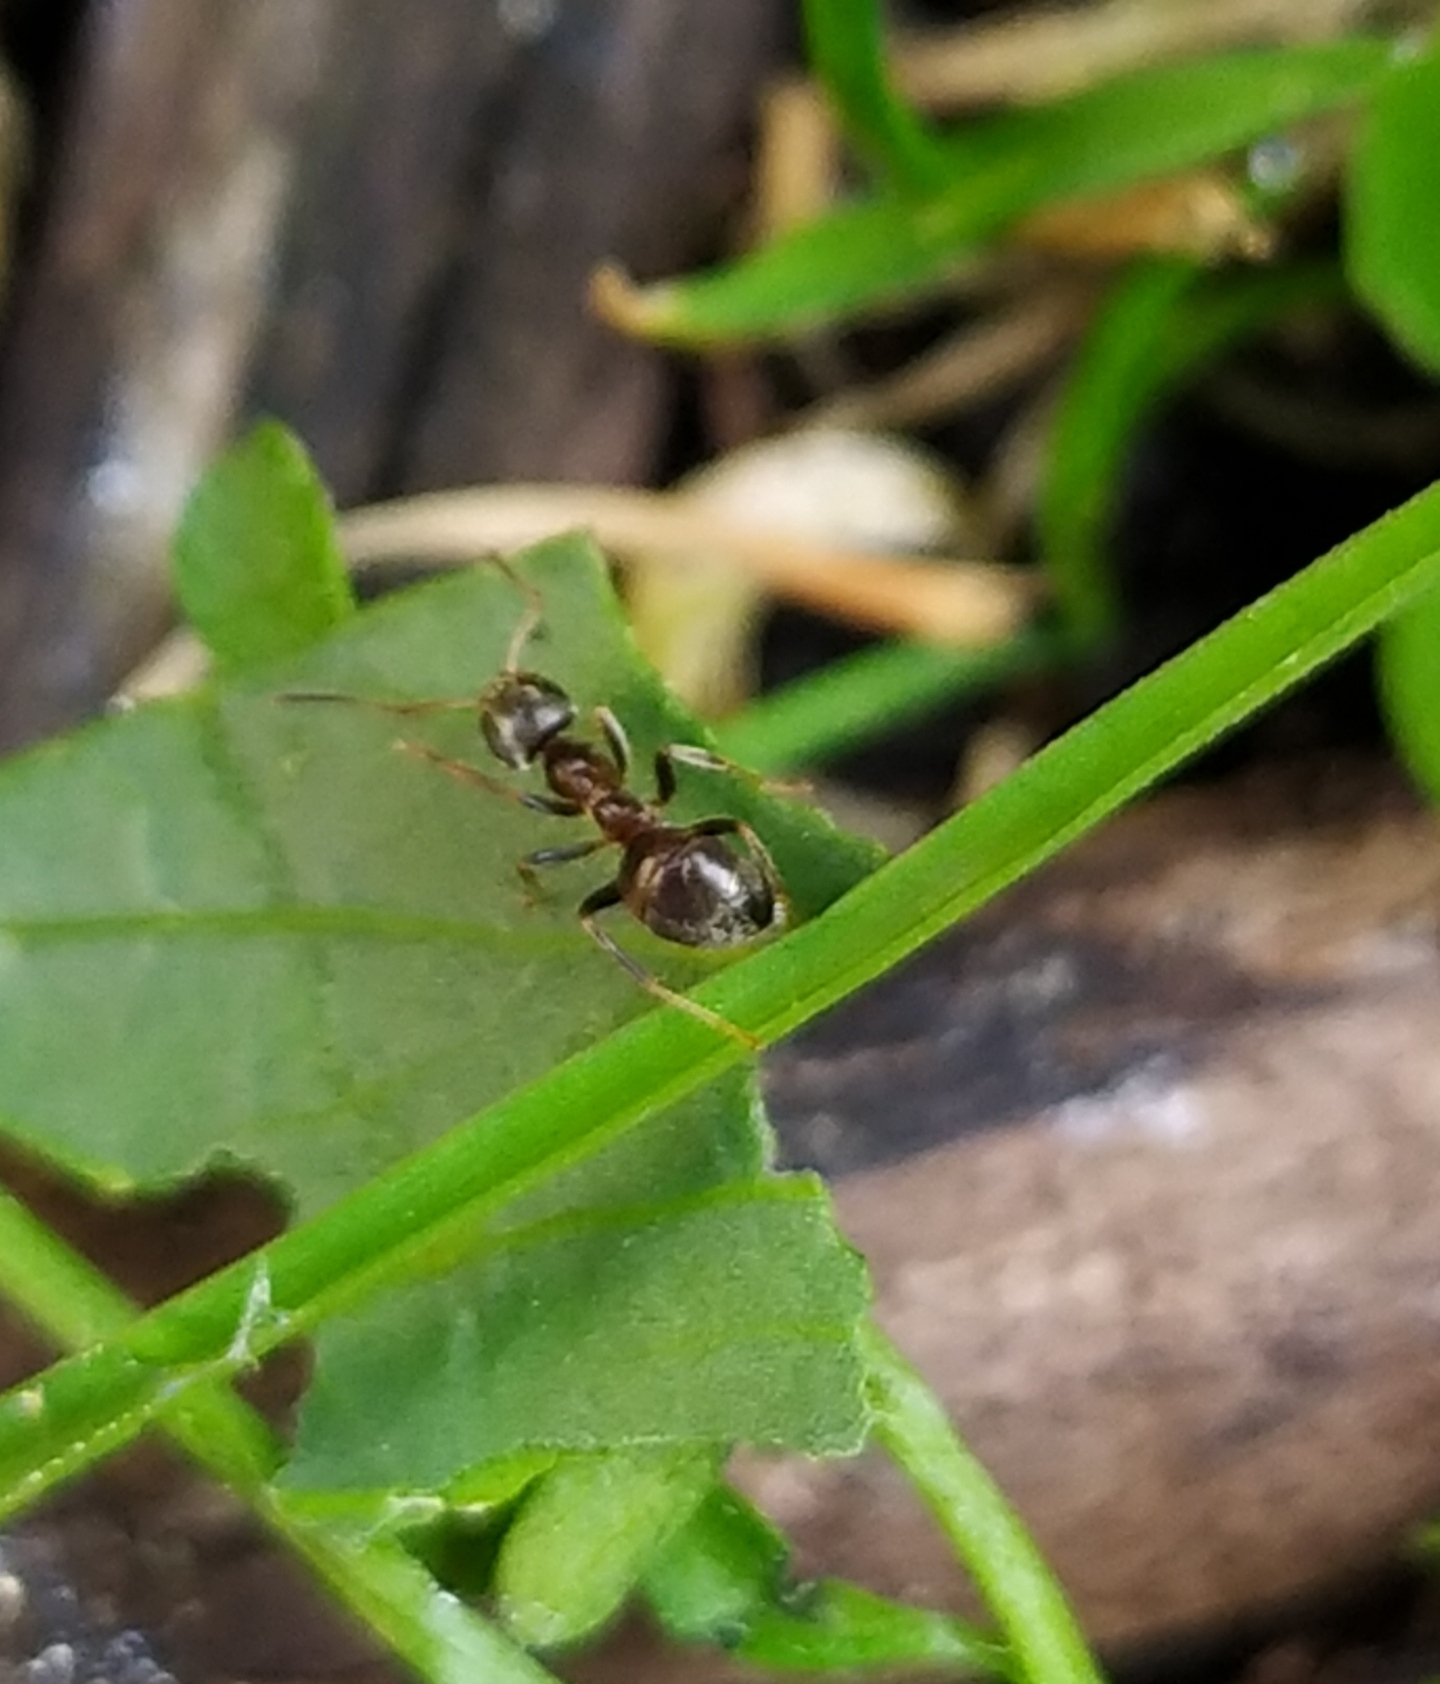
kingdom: Animalia
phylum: Arthropoda
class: Insecta
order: Hymenoptera
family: Formicidae
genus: Lasius
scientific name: Lasius niger
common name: Small black ant
